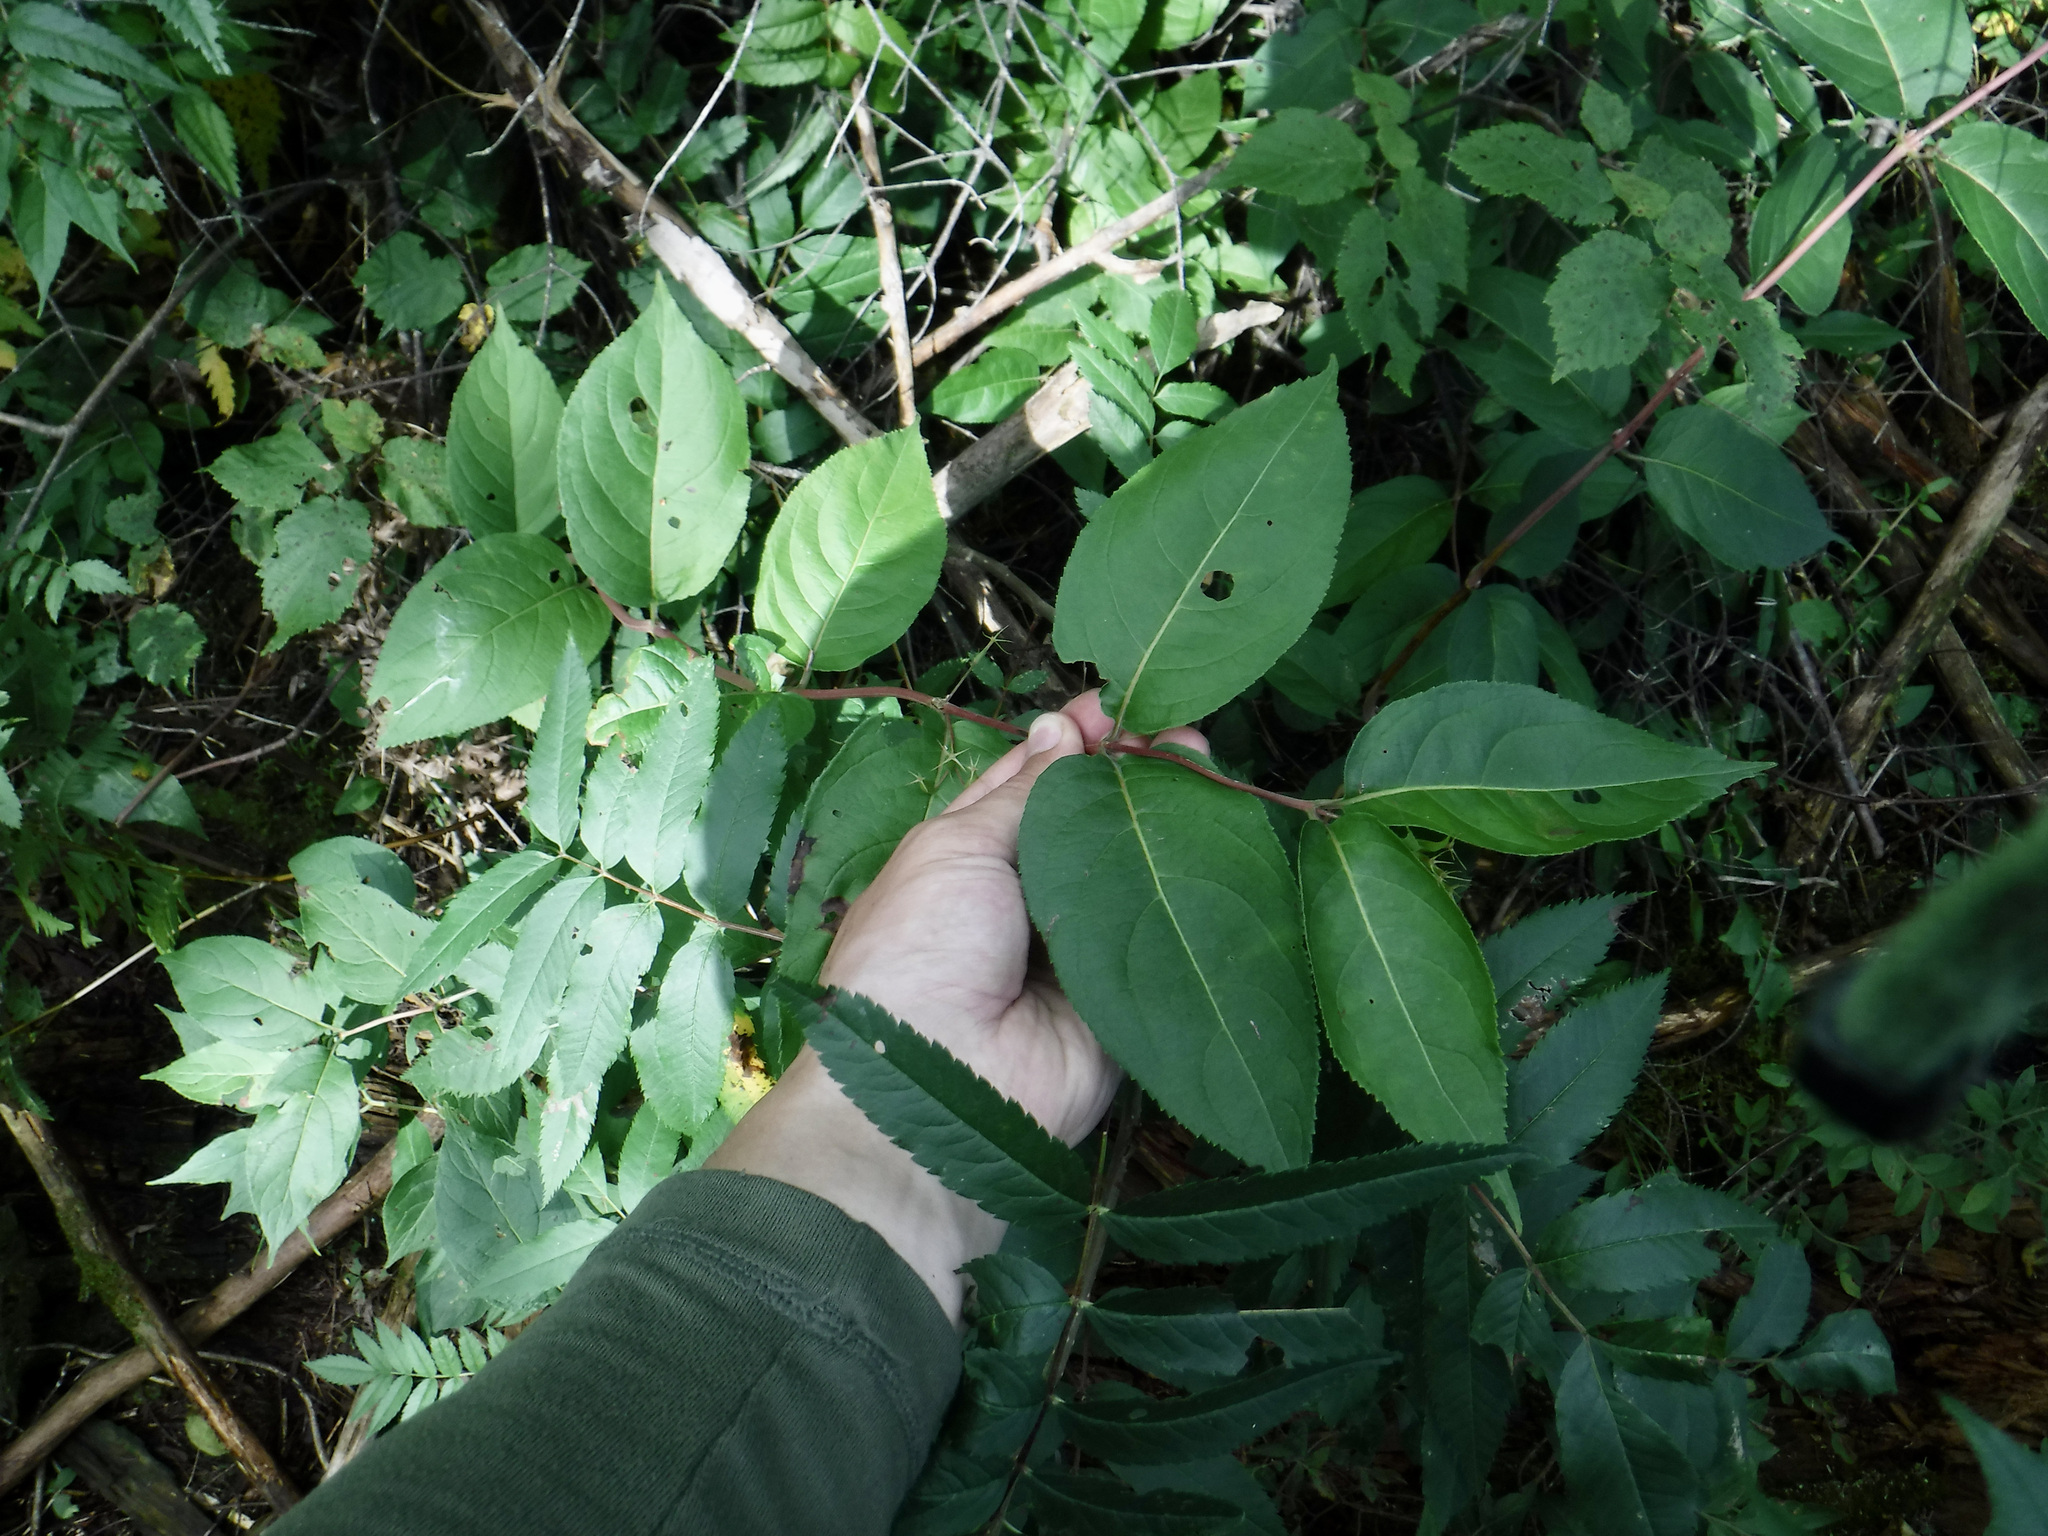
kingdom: Plantae
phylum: Tracheophyta
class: Magnoliopsida
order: Dipsacales
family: Caprifoliaceae
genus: Diervilla
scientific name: Diervilla lonicera
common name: Bush-honeysuckle
